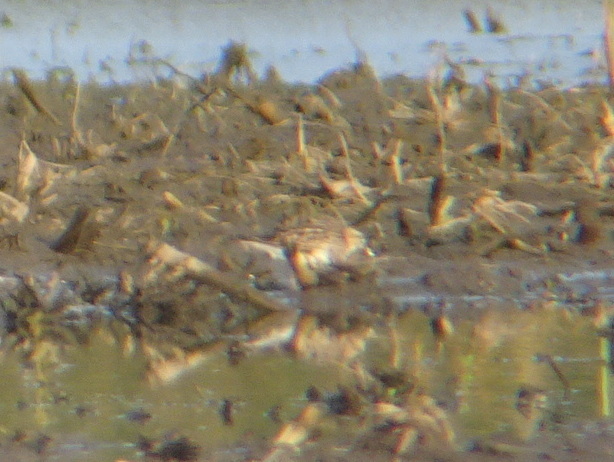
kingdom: Animalia
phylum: Chordata
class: Aves
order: Charadriiformes
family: Scolopacidae
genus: Calidris
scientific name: Calidris melanotos
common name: Pectoral sandpiper
